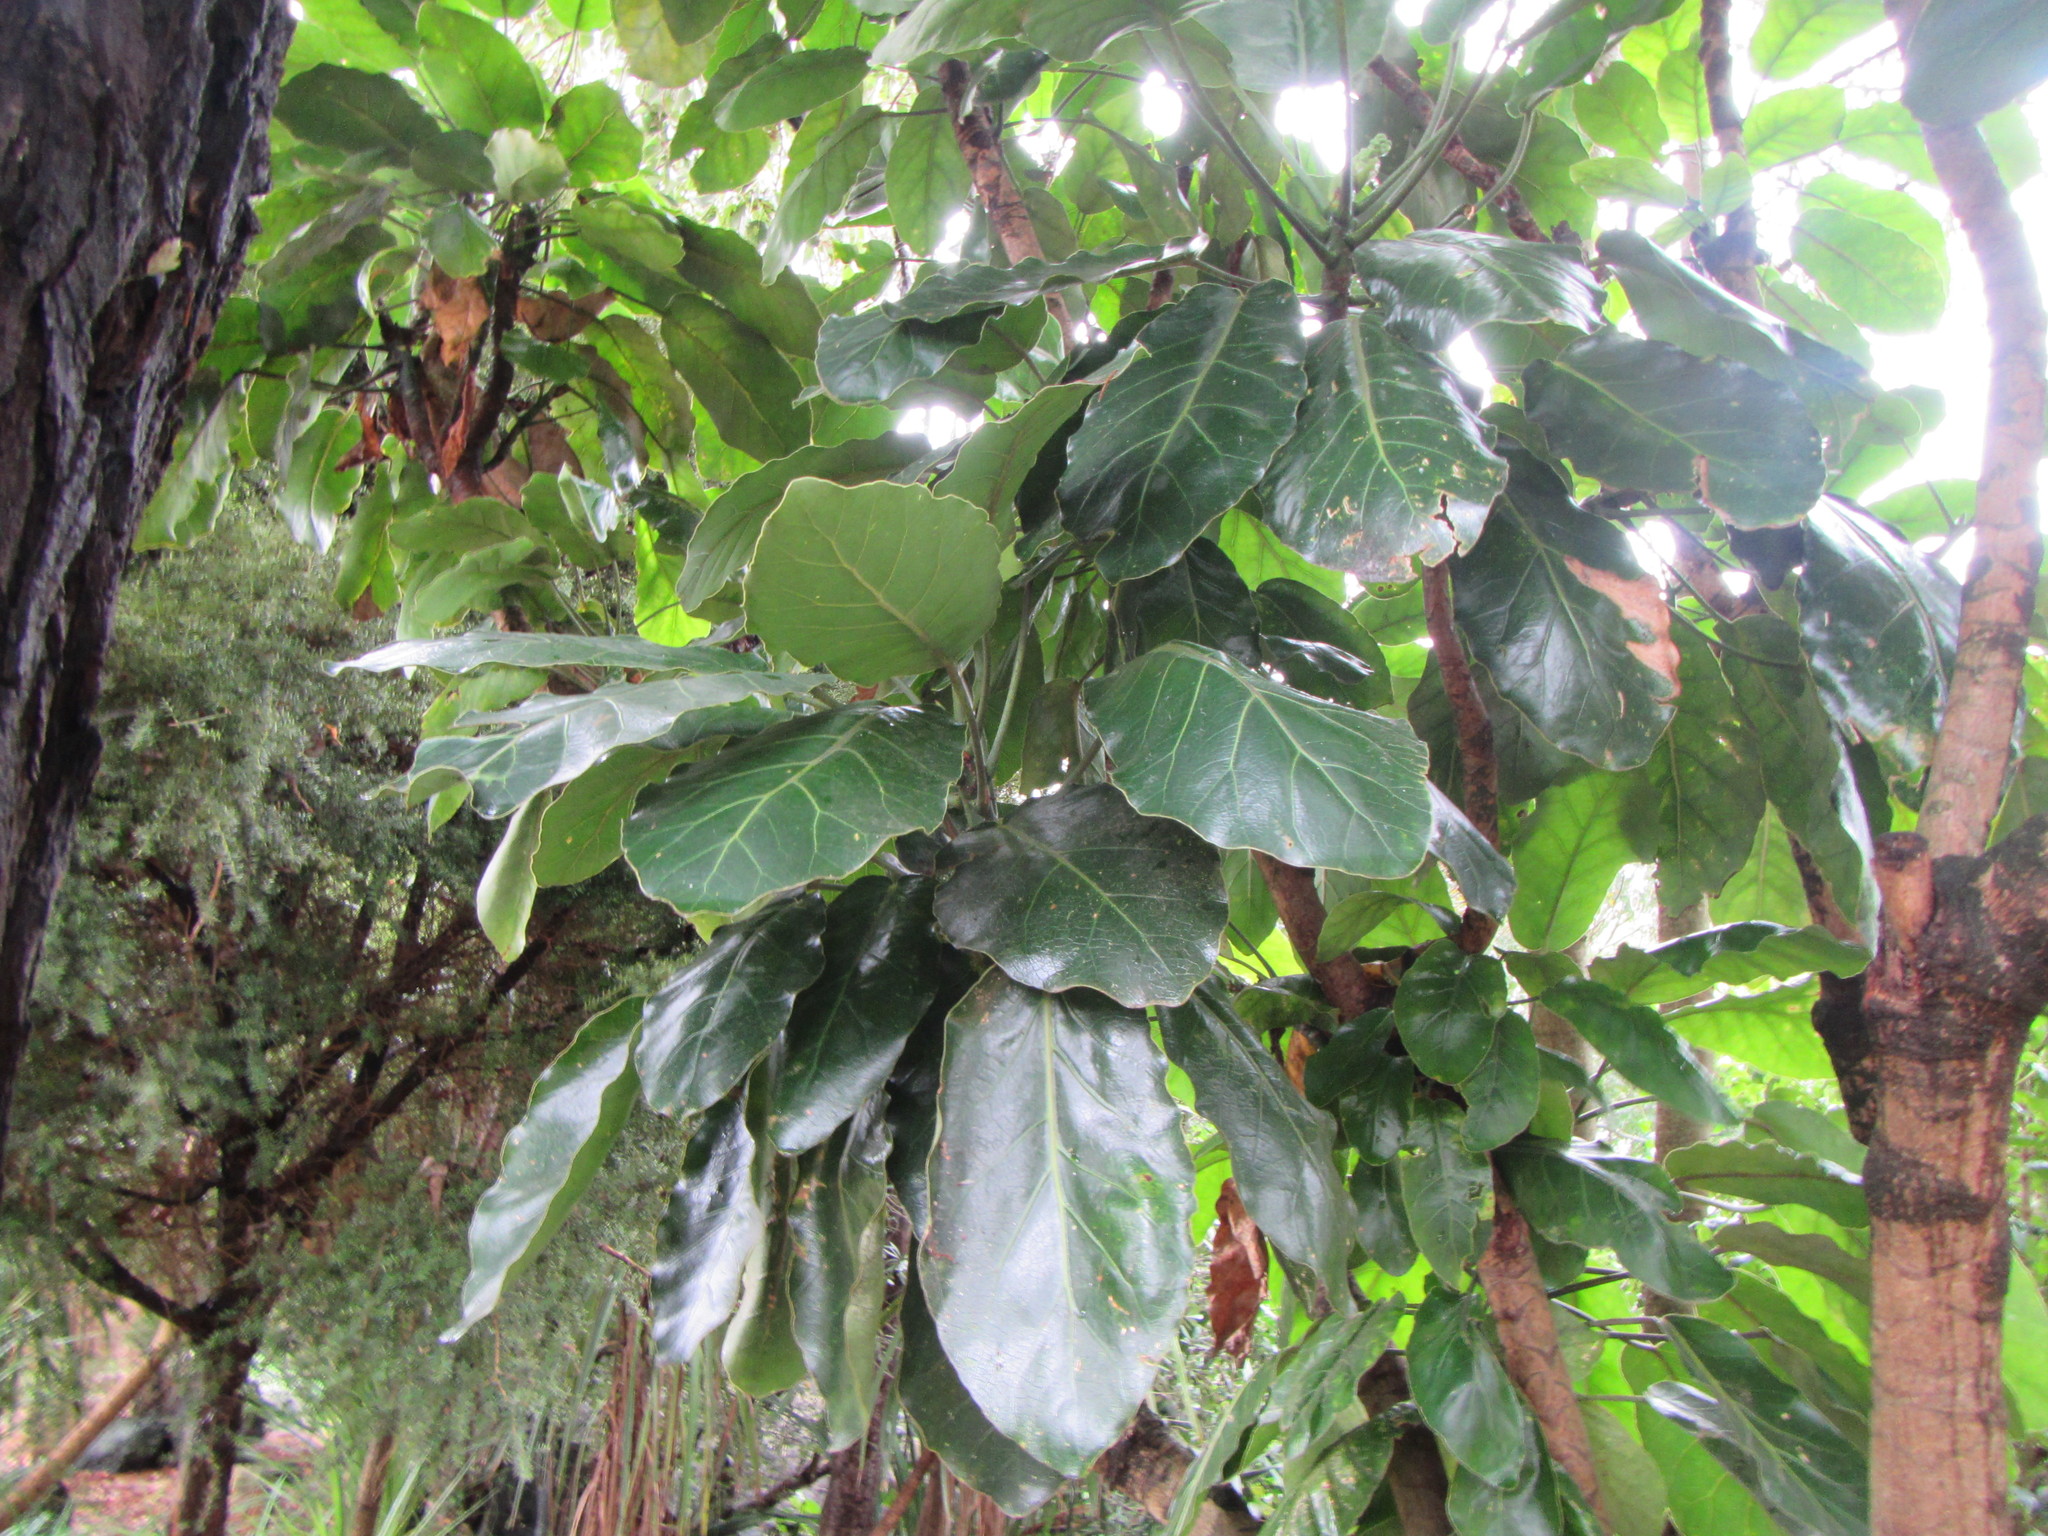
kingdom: Plantae
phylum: Tracheophyta
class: Magnoliopsida
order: Apiales
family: Araliaceae
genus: Meryta
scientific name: Meryta sinclairii
